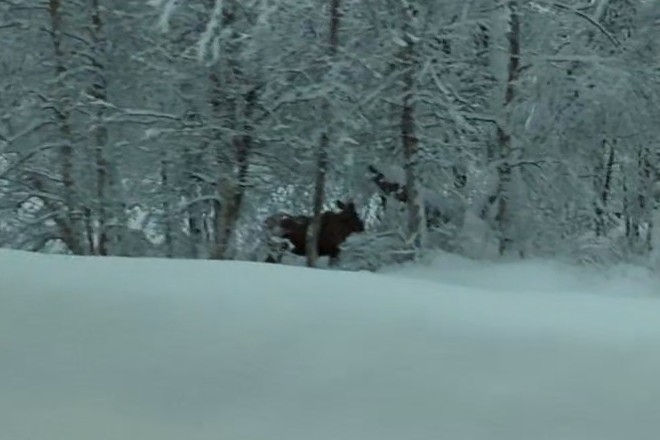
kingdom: Animalia
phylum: Chordata
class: Mammalia
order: Artiodactyla
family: Cervidae
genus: Alces
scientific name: Alces alces
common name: Moose
